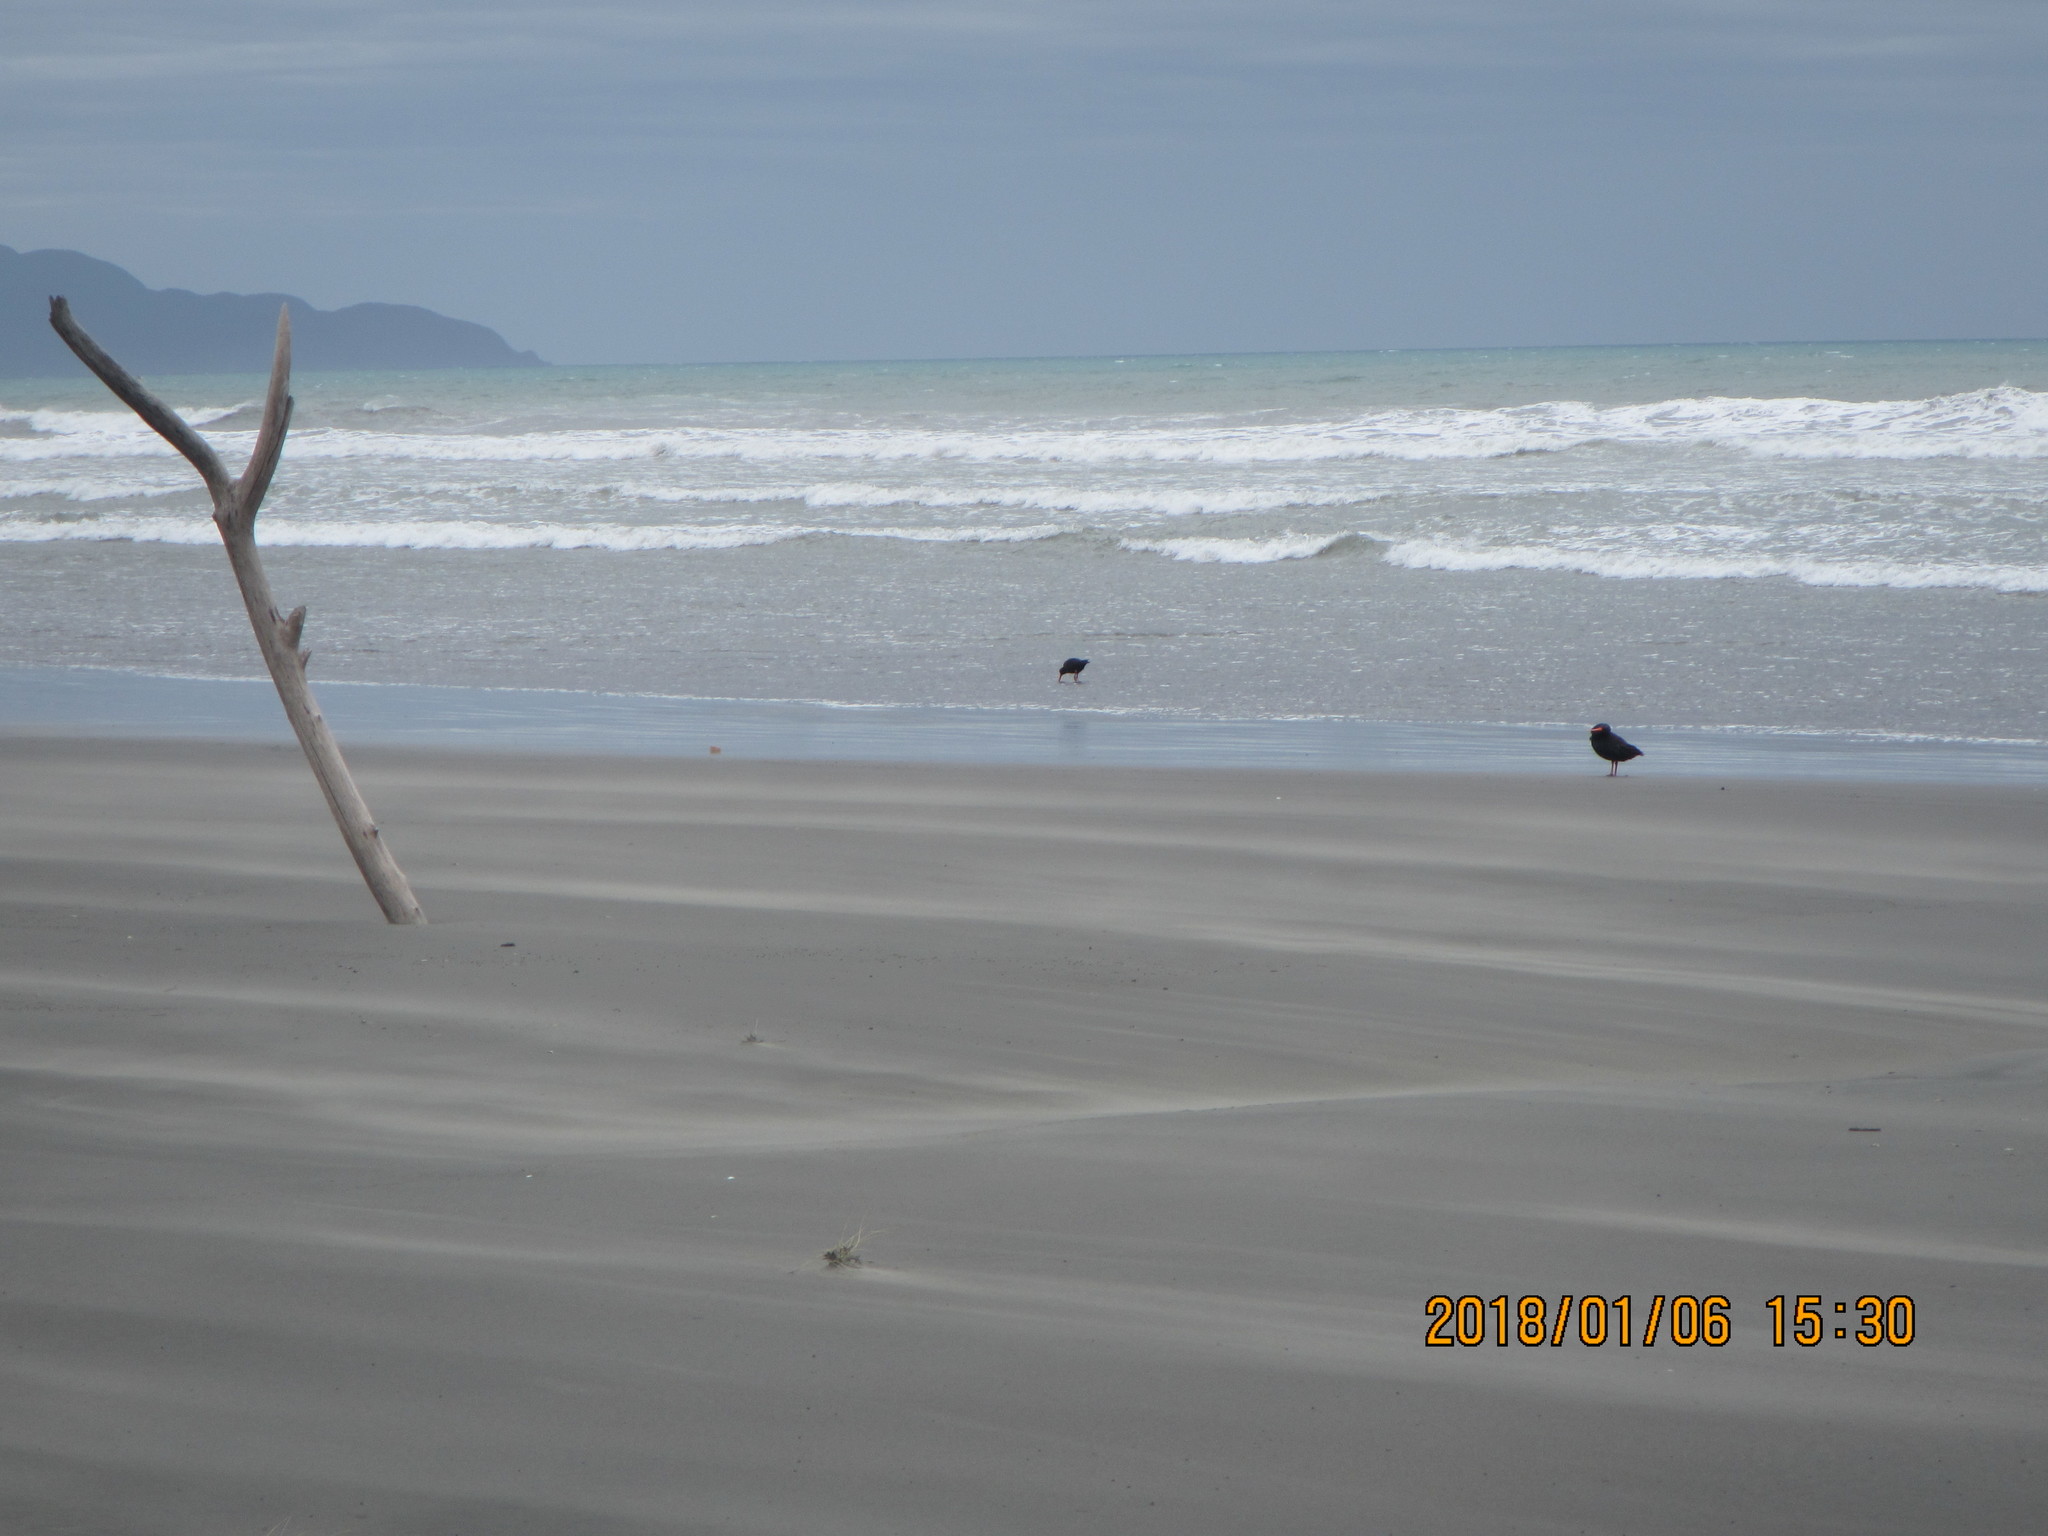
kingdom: Animalia
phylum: Chordata
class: Aves
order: Charadriiformes
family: Haematopodidae
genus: Haematopus
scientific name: Haematopus unicolor
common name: Variable oystercatcher
